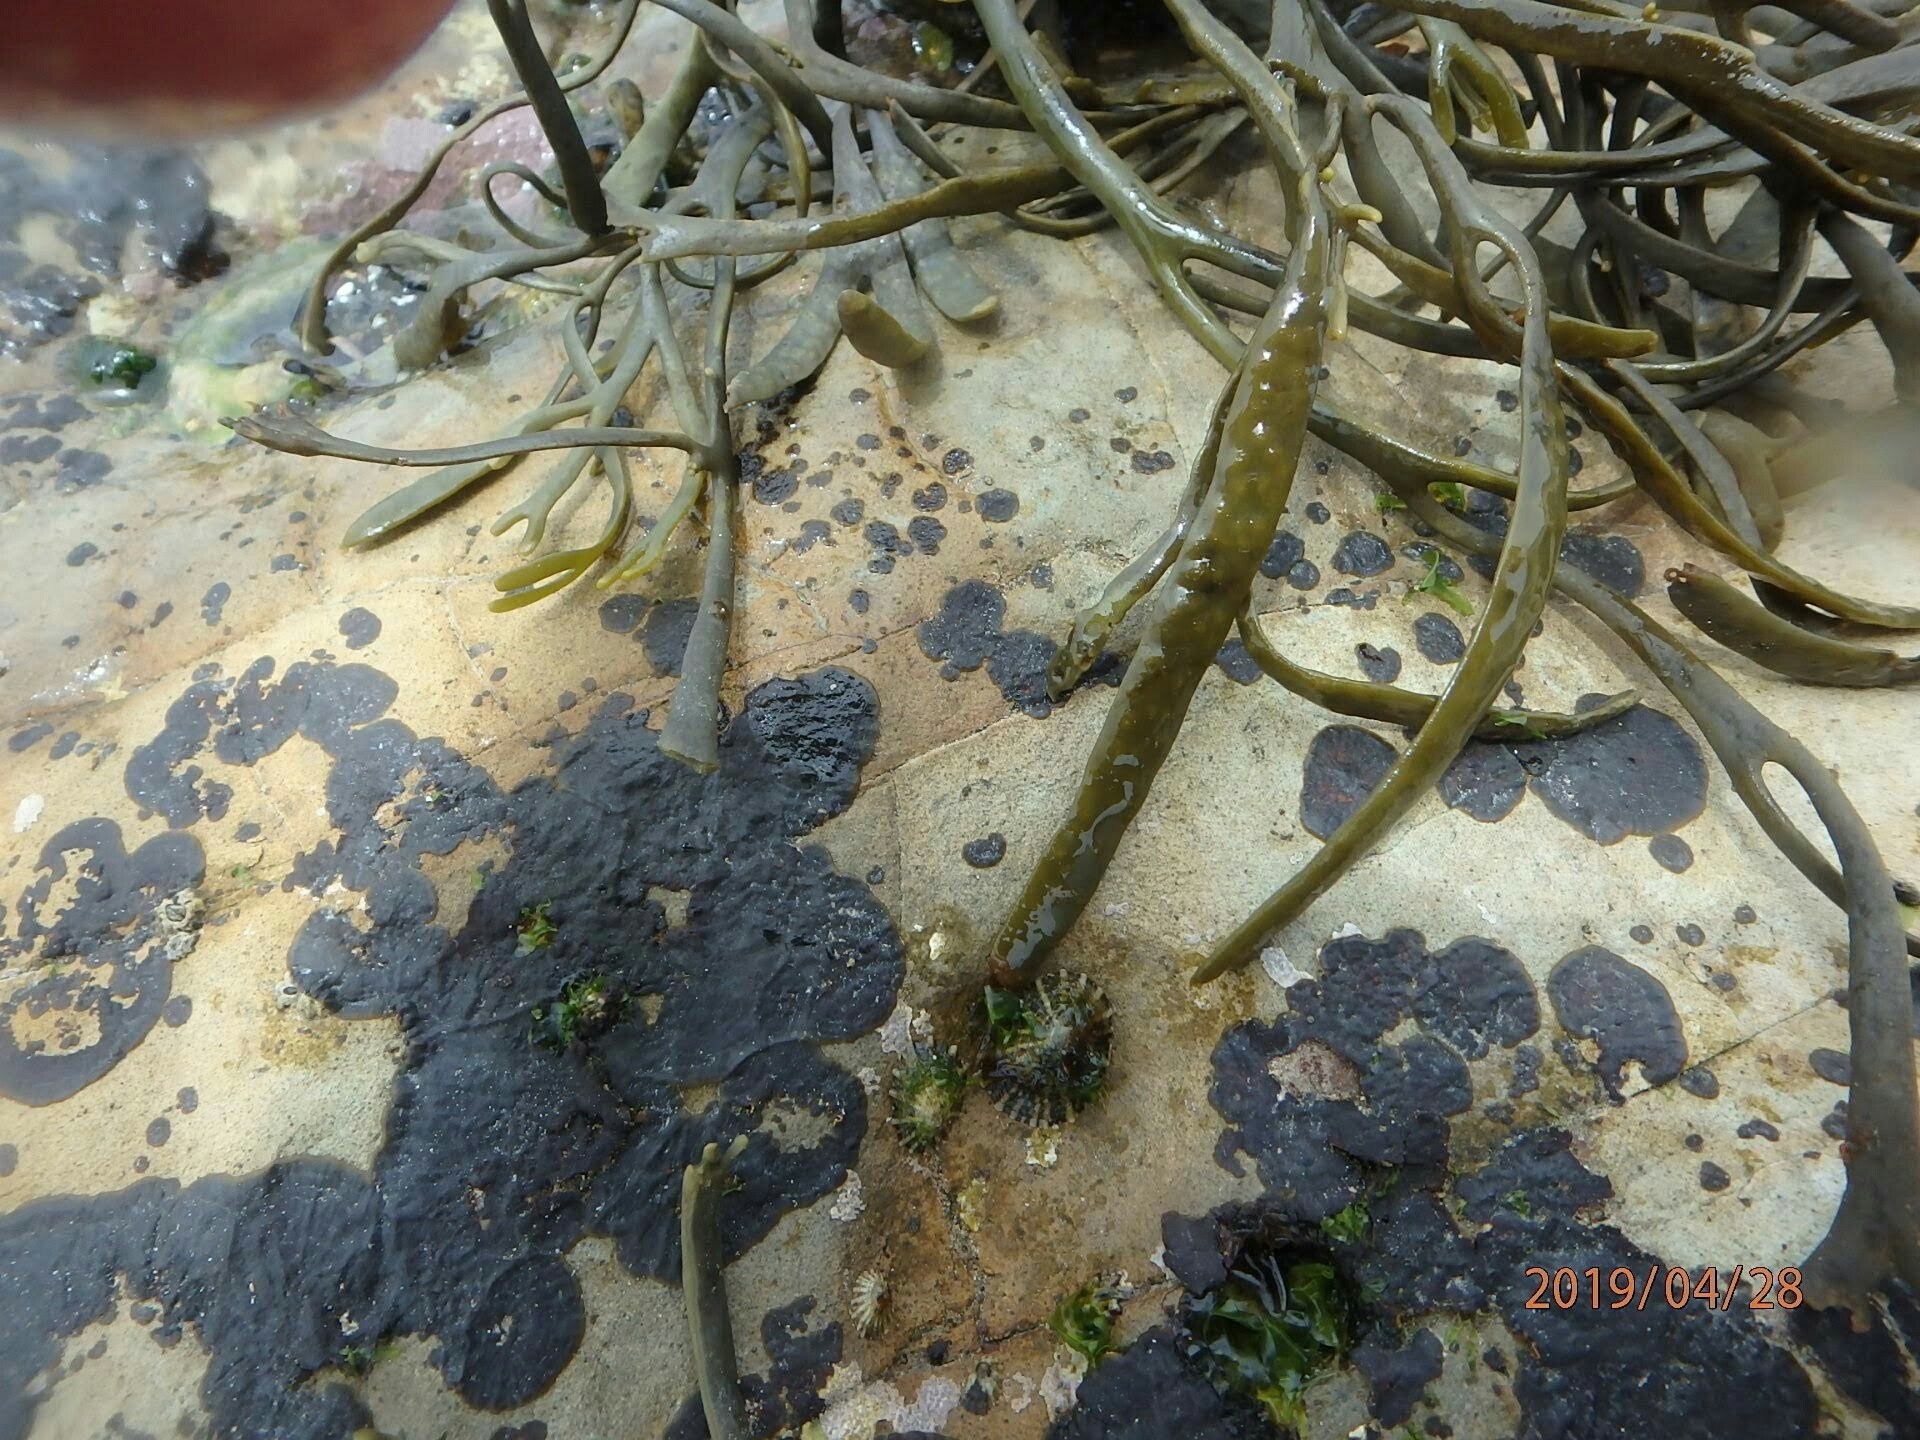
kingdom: Chromista
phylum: Ochrophyta
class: Phaeophyceae
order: Fucales
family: Fucaceae
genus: Silvetia
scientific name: Silvetia
